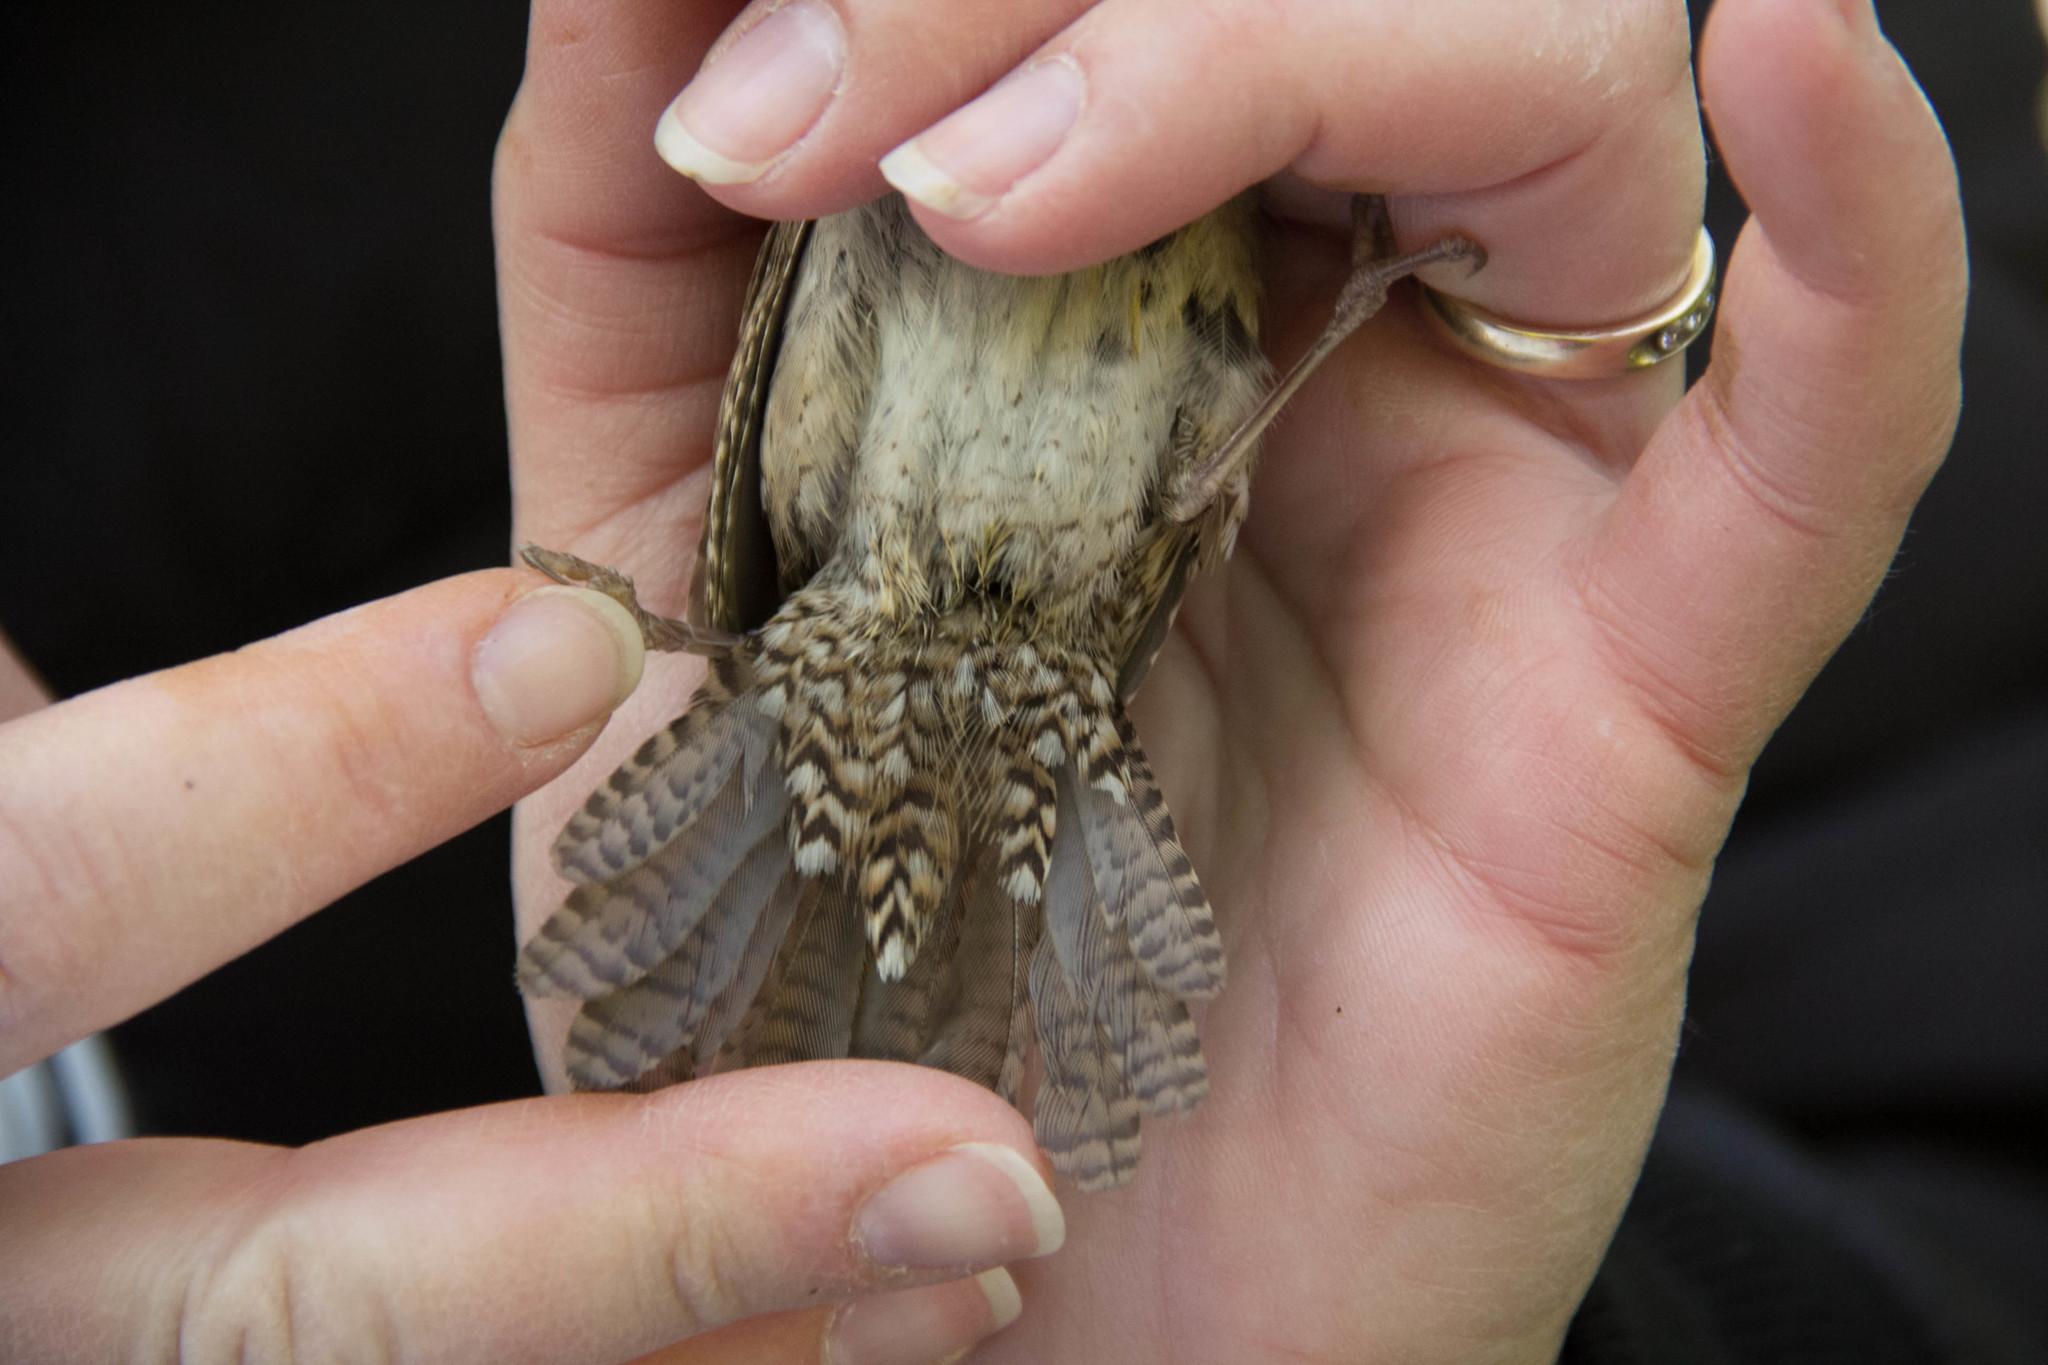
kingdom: Animalia
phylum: Chordata
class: Aves
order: Passeriformes
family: Troglodytidae
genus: Troglodytes
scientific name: Troglodytes aedon
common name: House wren
